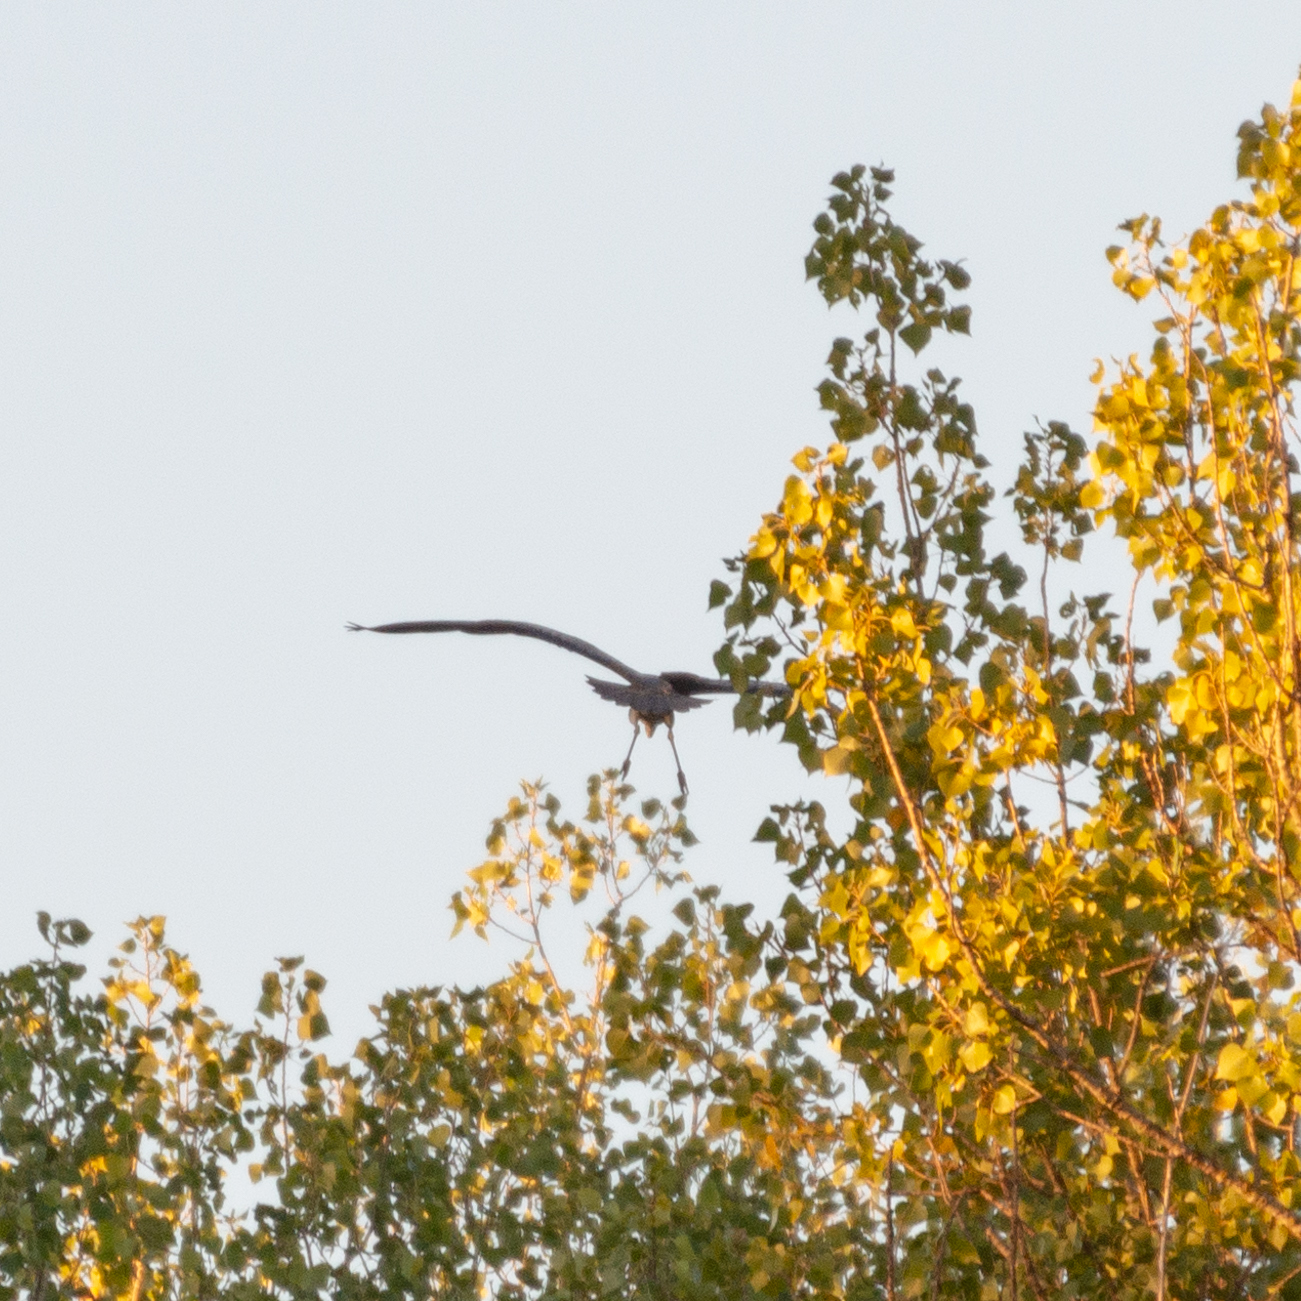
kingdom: Animalia
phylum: Chordata
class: Aves
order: Pelecaniformes
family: Ardeidae
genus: Ardea
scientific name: Ardea cinerea
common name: Grey heron
